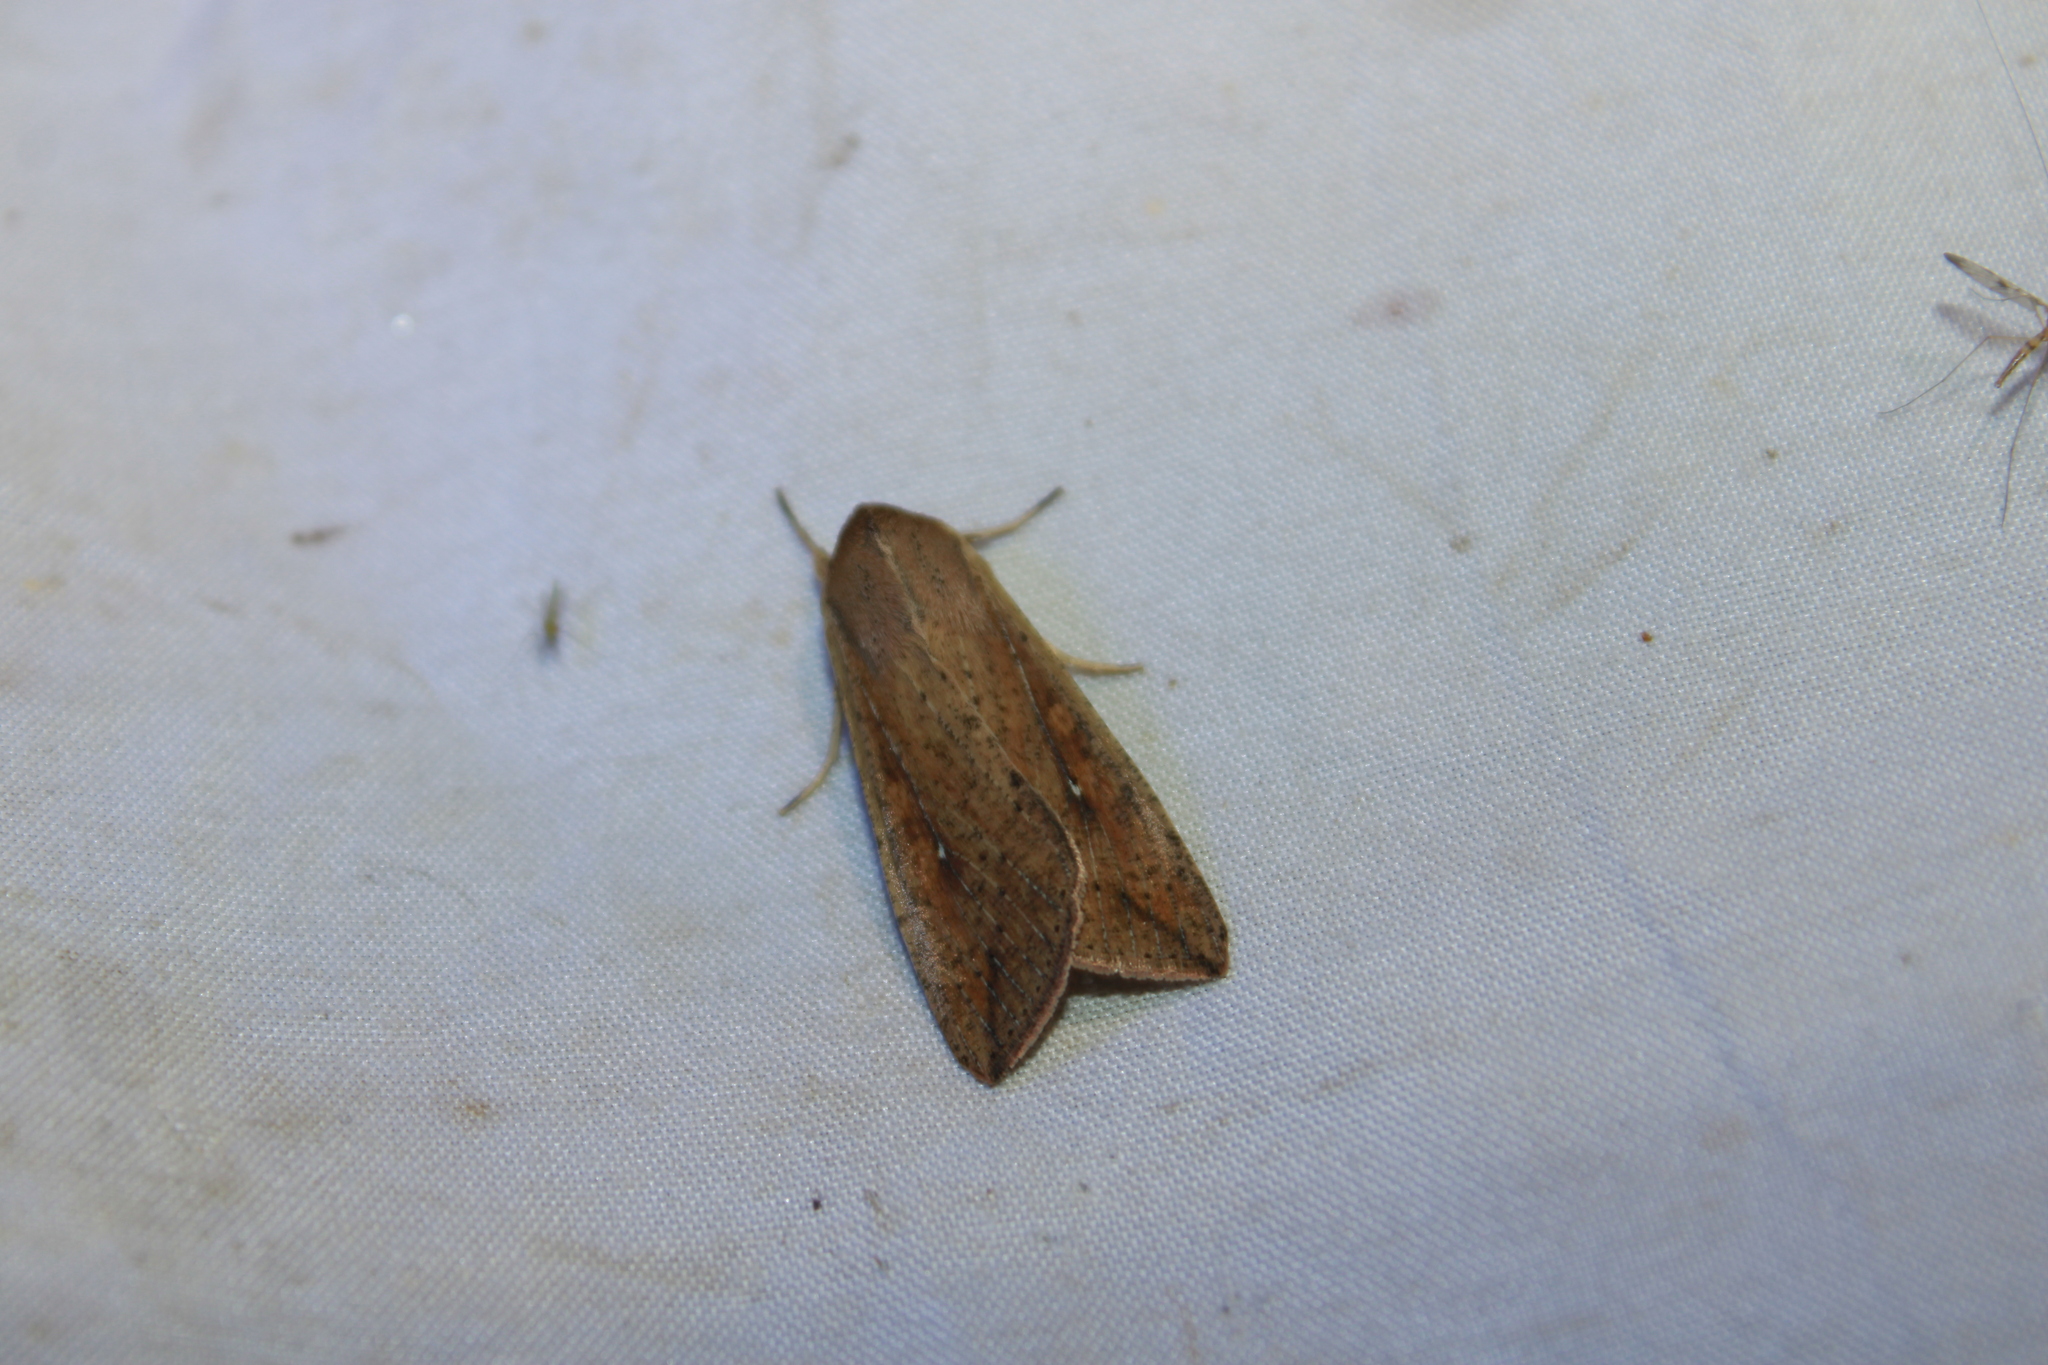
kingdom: Animalia
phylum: Arthropoda
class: Insecta
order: Lepidoptera
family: Noctuidae
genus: Mythimna
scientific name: Mythimna unipuncta
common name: White-speck
